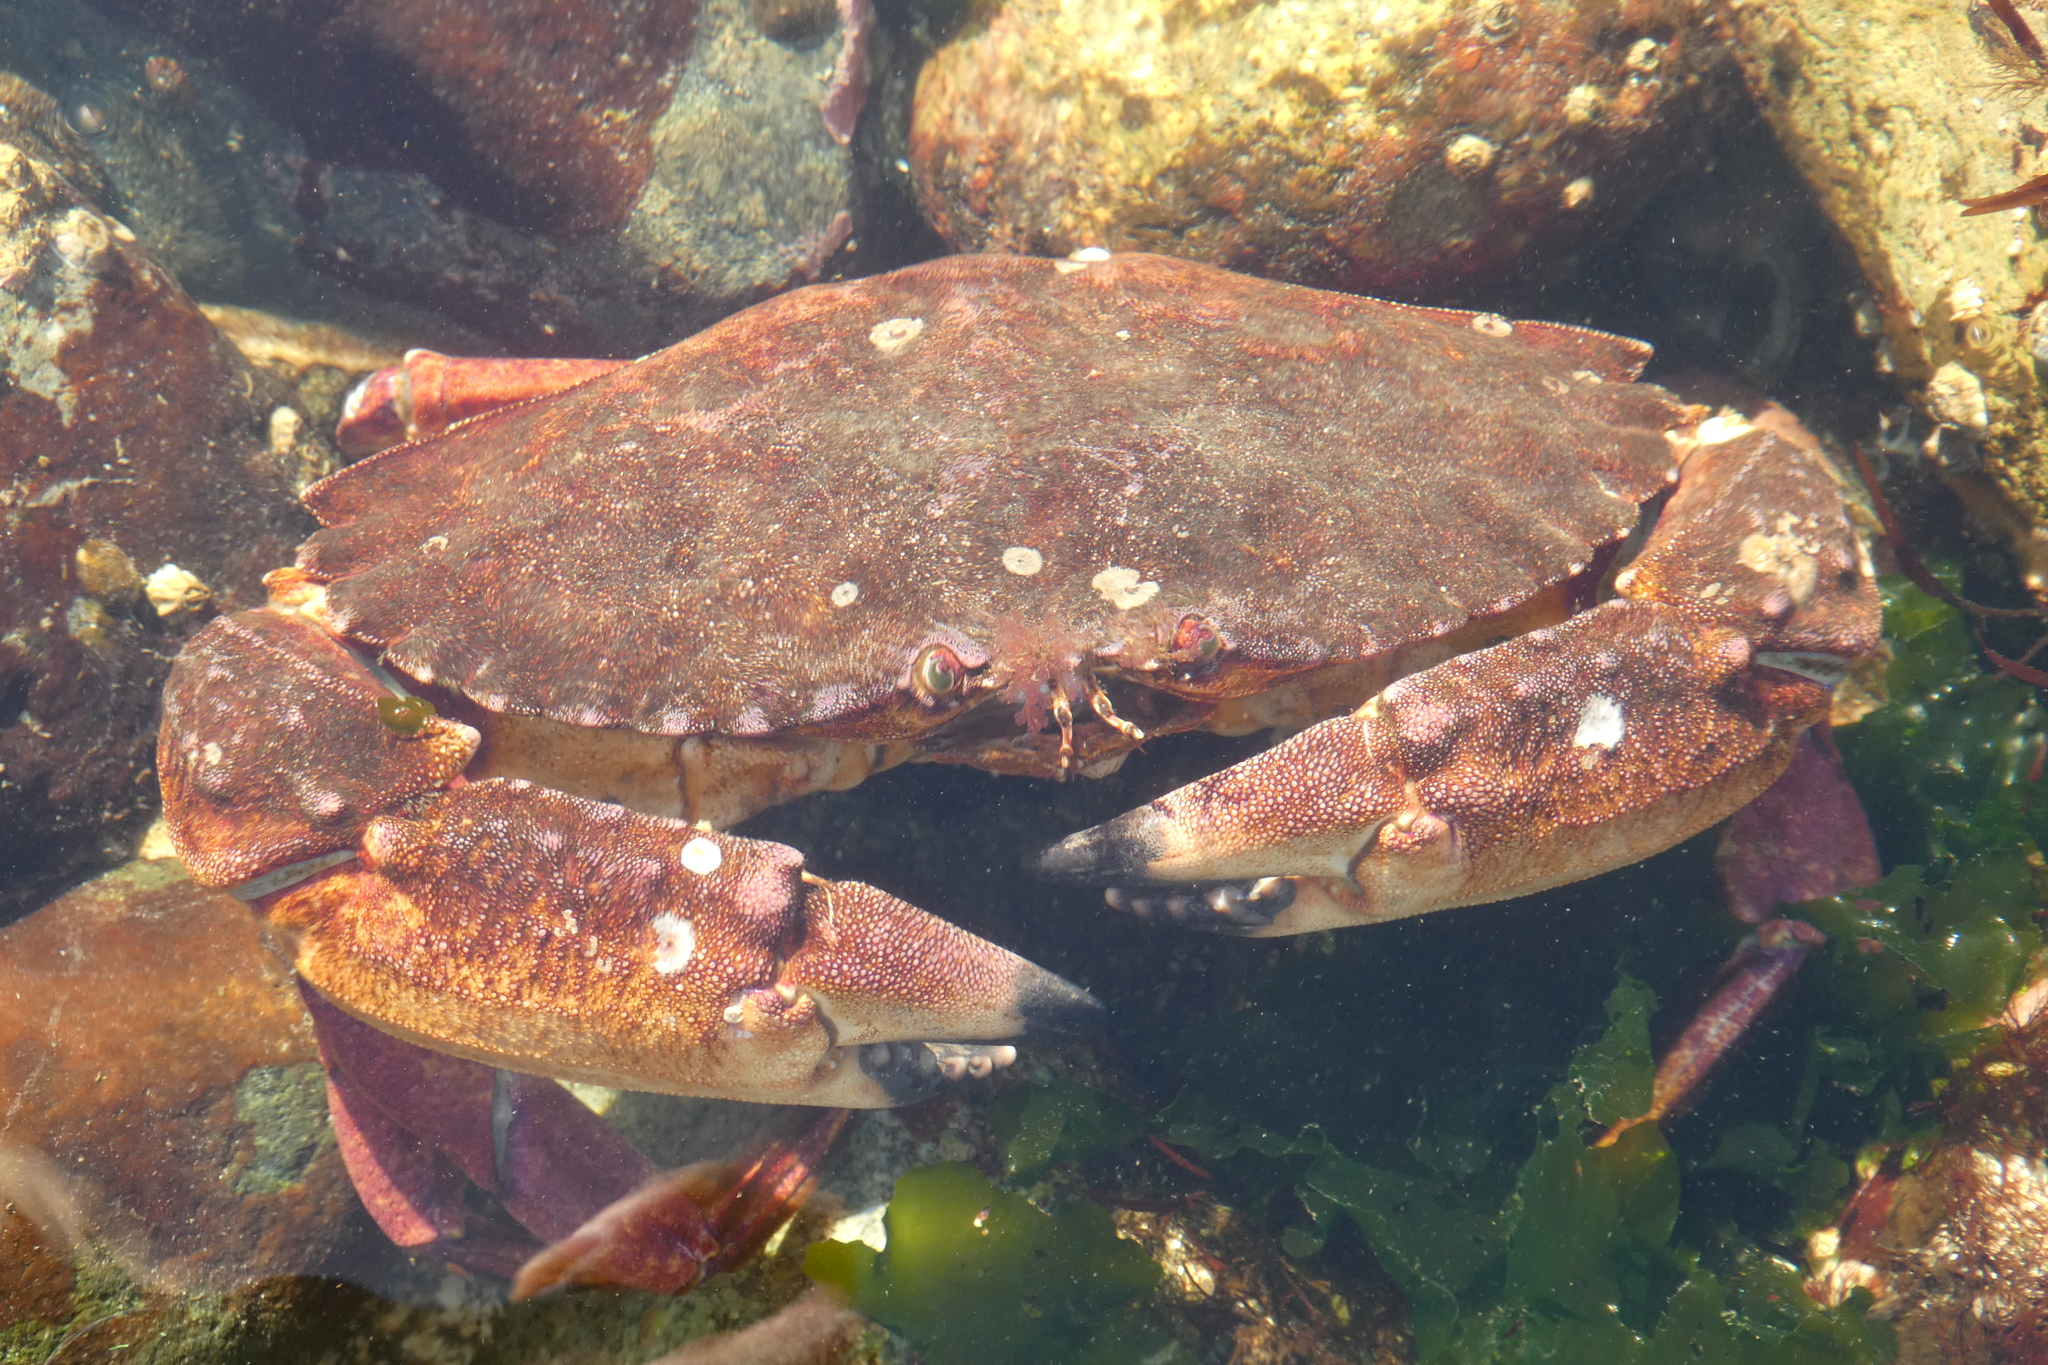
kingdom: Animalia
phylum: Arthropoda
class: Malacostraca
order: Decapoda
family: Cancridae
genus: Cancer
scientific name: Cancer productus
